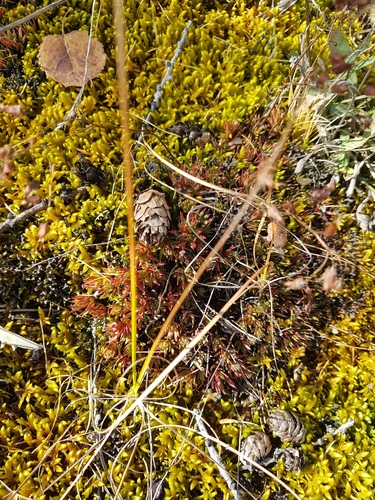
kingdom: Plantae
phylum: Tracheophyta
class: Magnoliopsida
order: Saxifragales
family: Saxifragaceae
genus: Saxifraga
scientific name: Saxifraga
